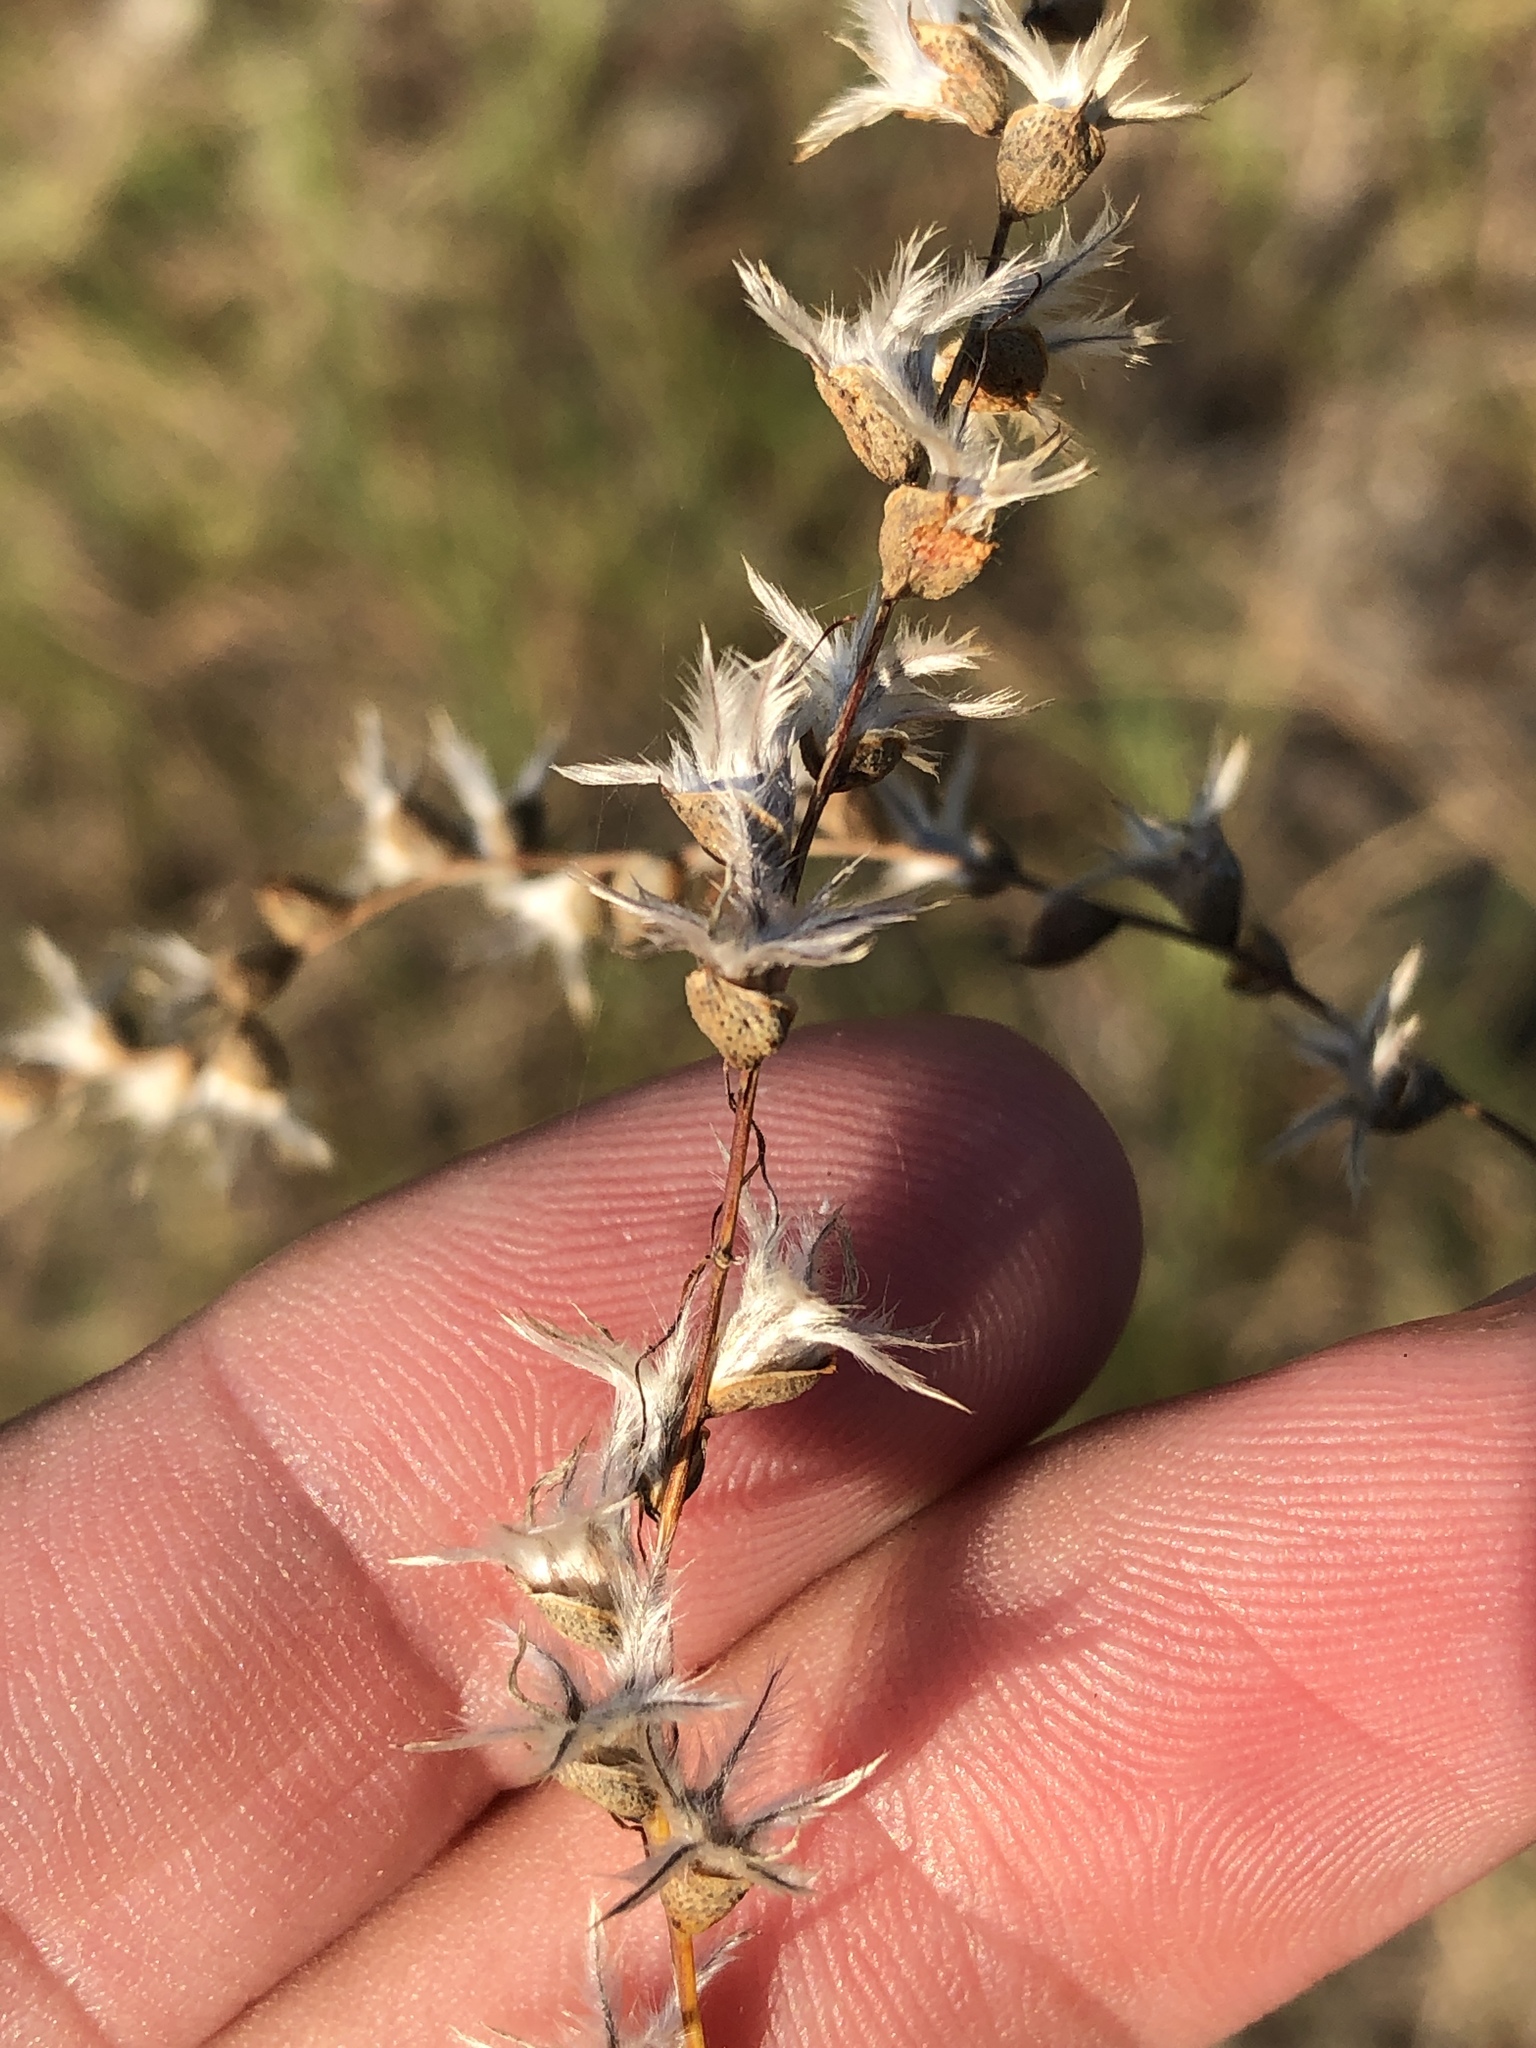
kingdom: Plantae
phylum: Tracheophyta
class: Magnoliopsida
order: Fabales
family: Fabaceae
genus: Dalea
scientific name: Dalea enneandra
